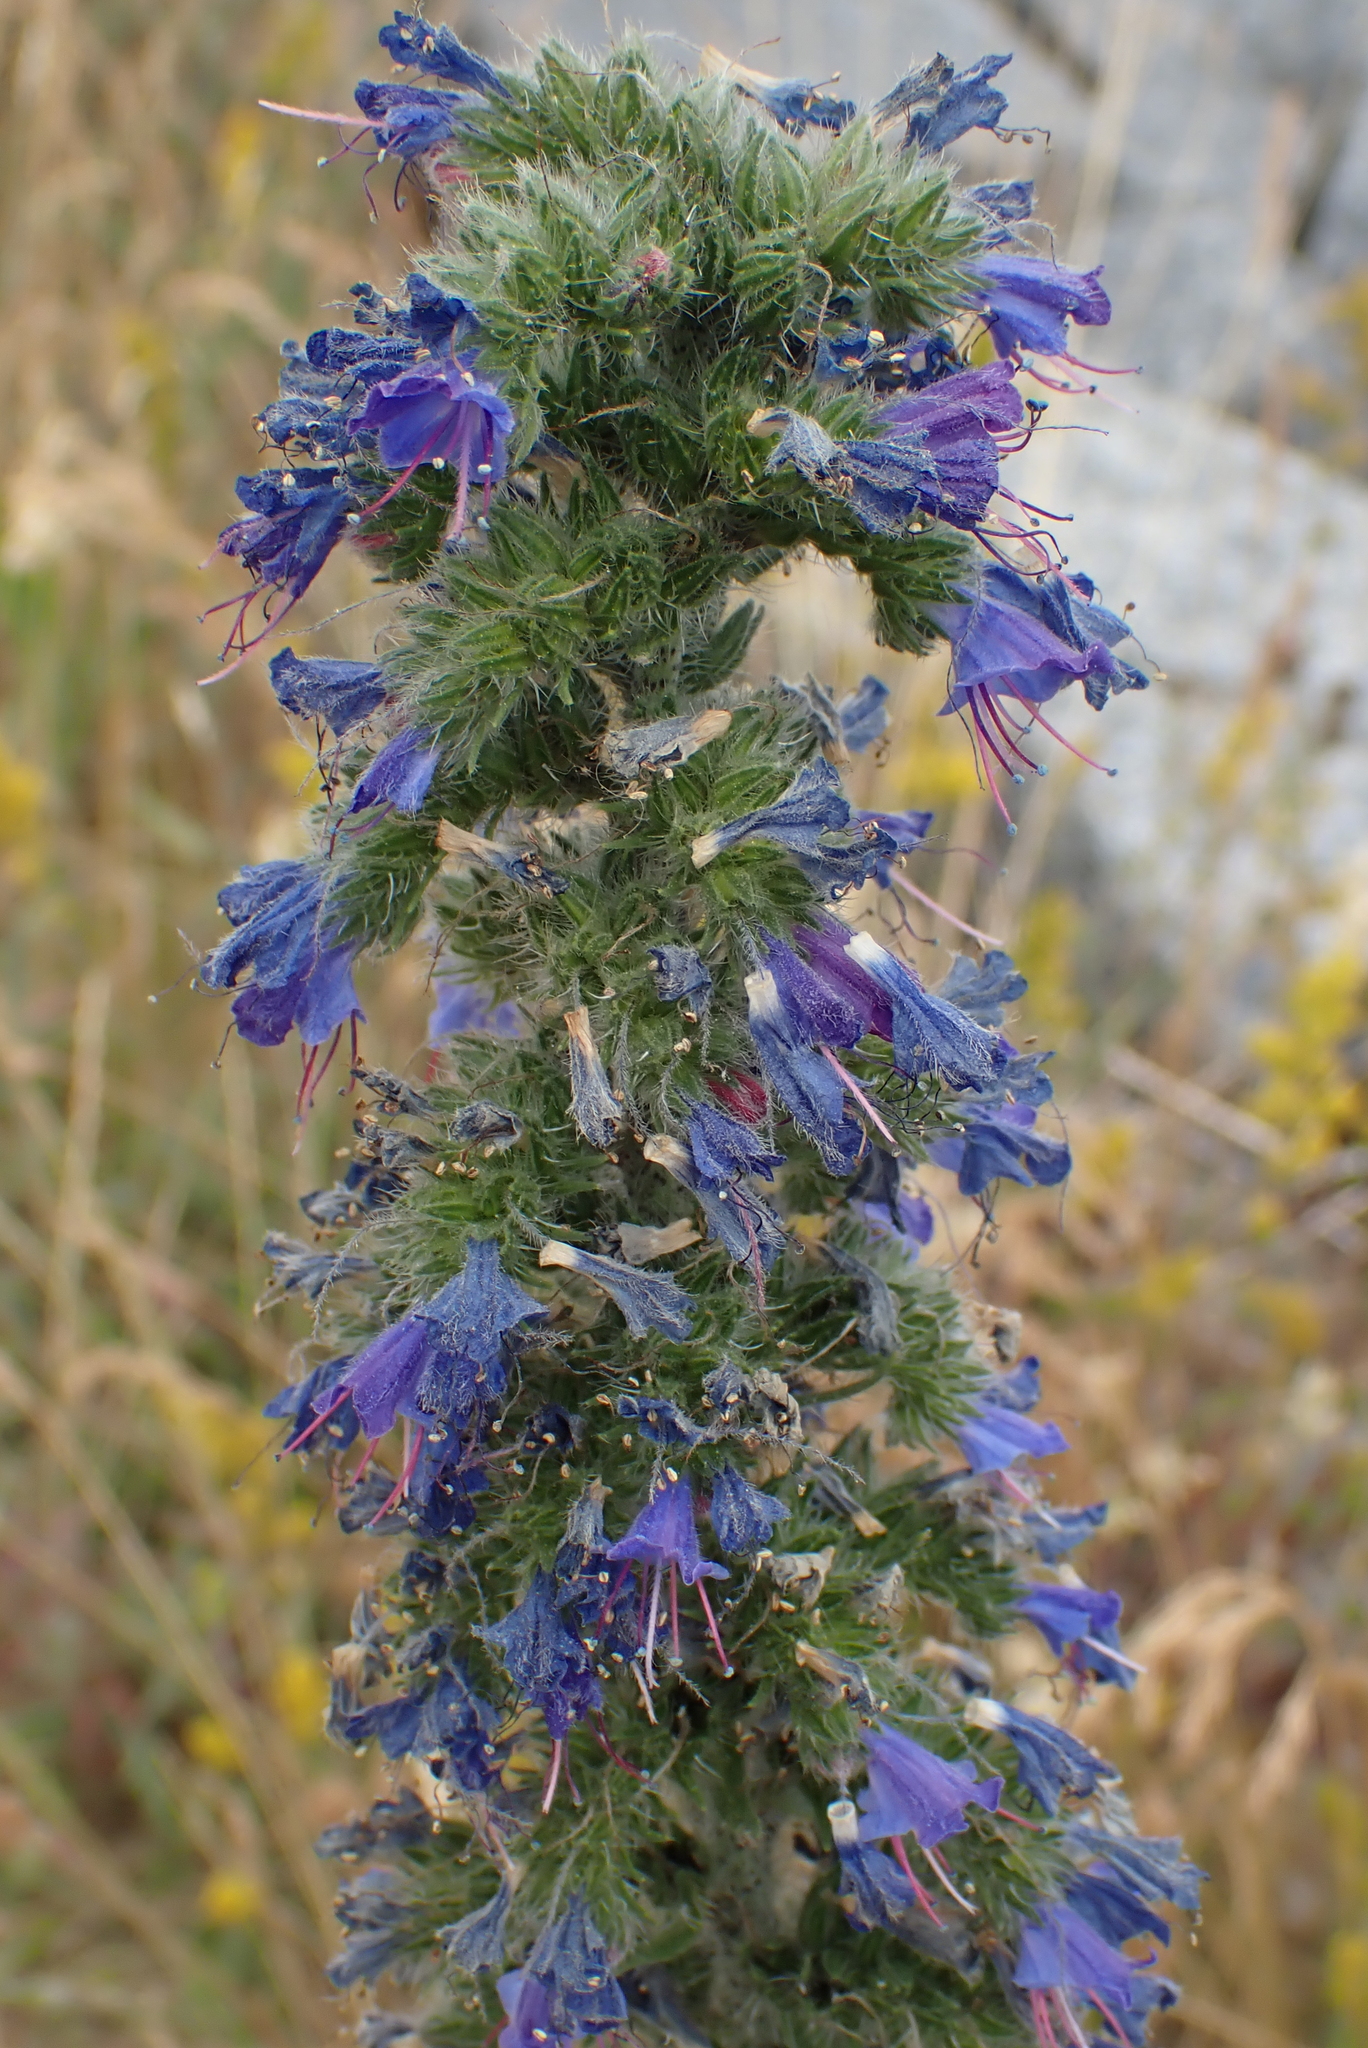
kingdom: Plantae
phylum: Tracheophyta
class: Magnoliopsida
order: Boraginales
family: Boraginaceae
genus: Echium
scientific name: Echium vulgare
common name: Common viper's bugloss
